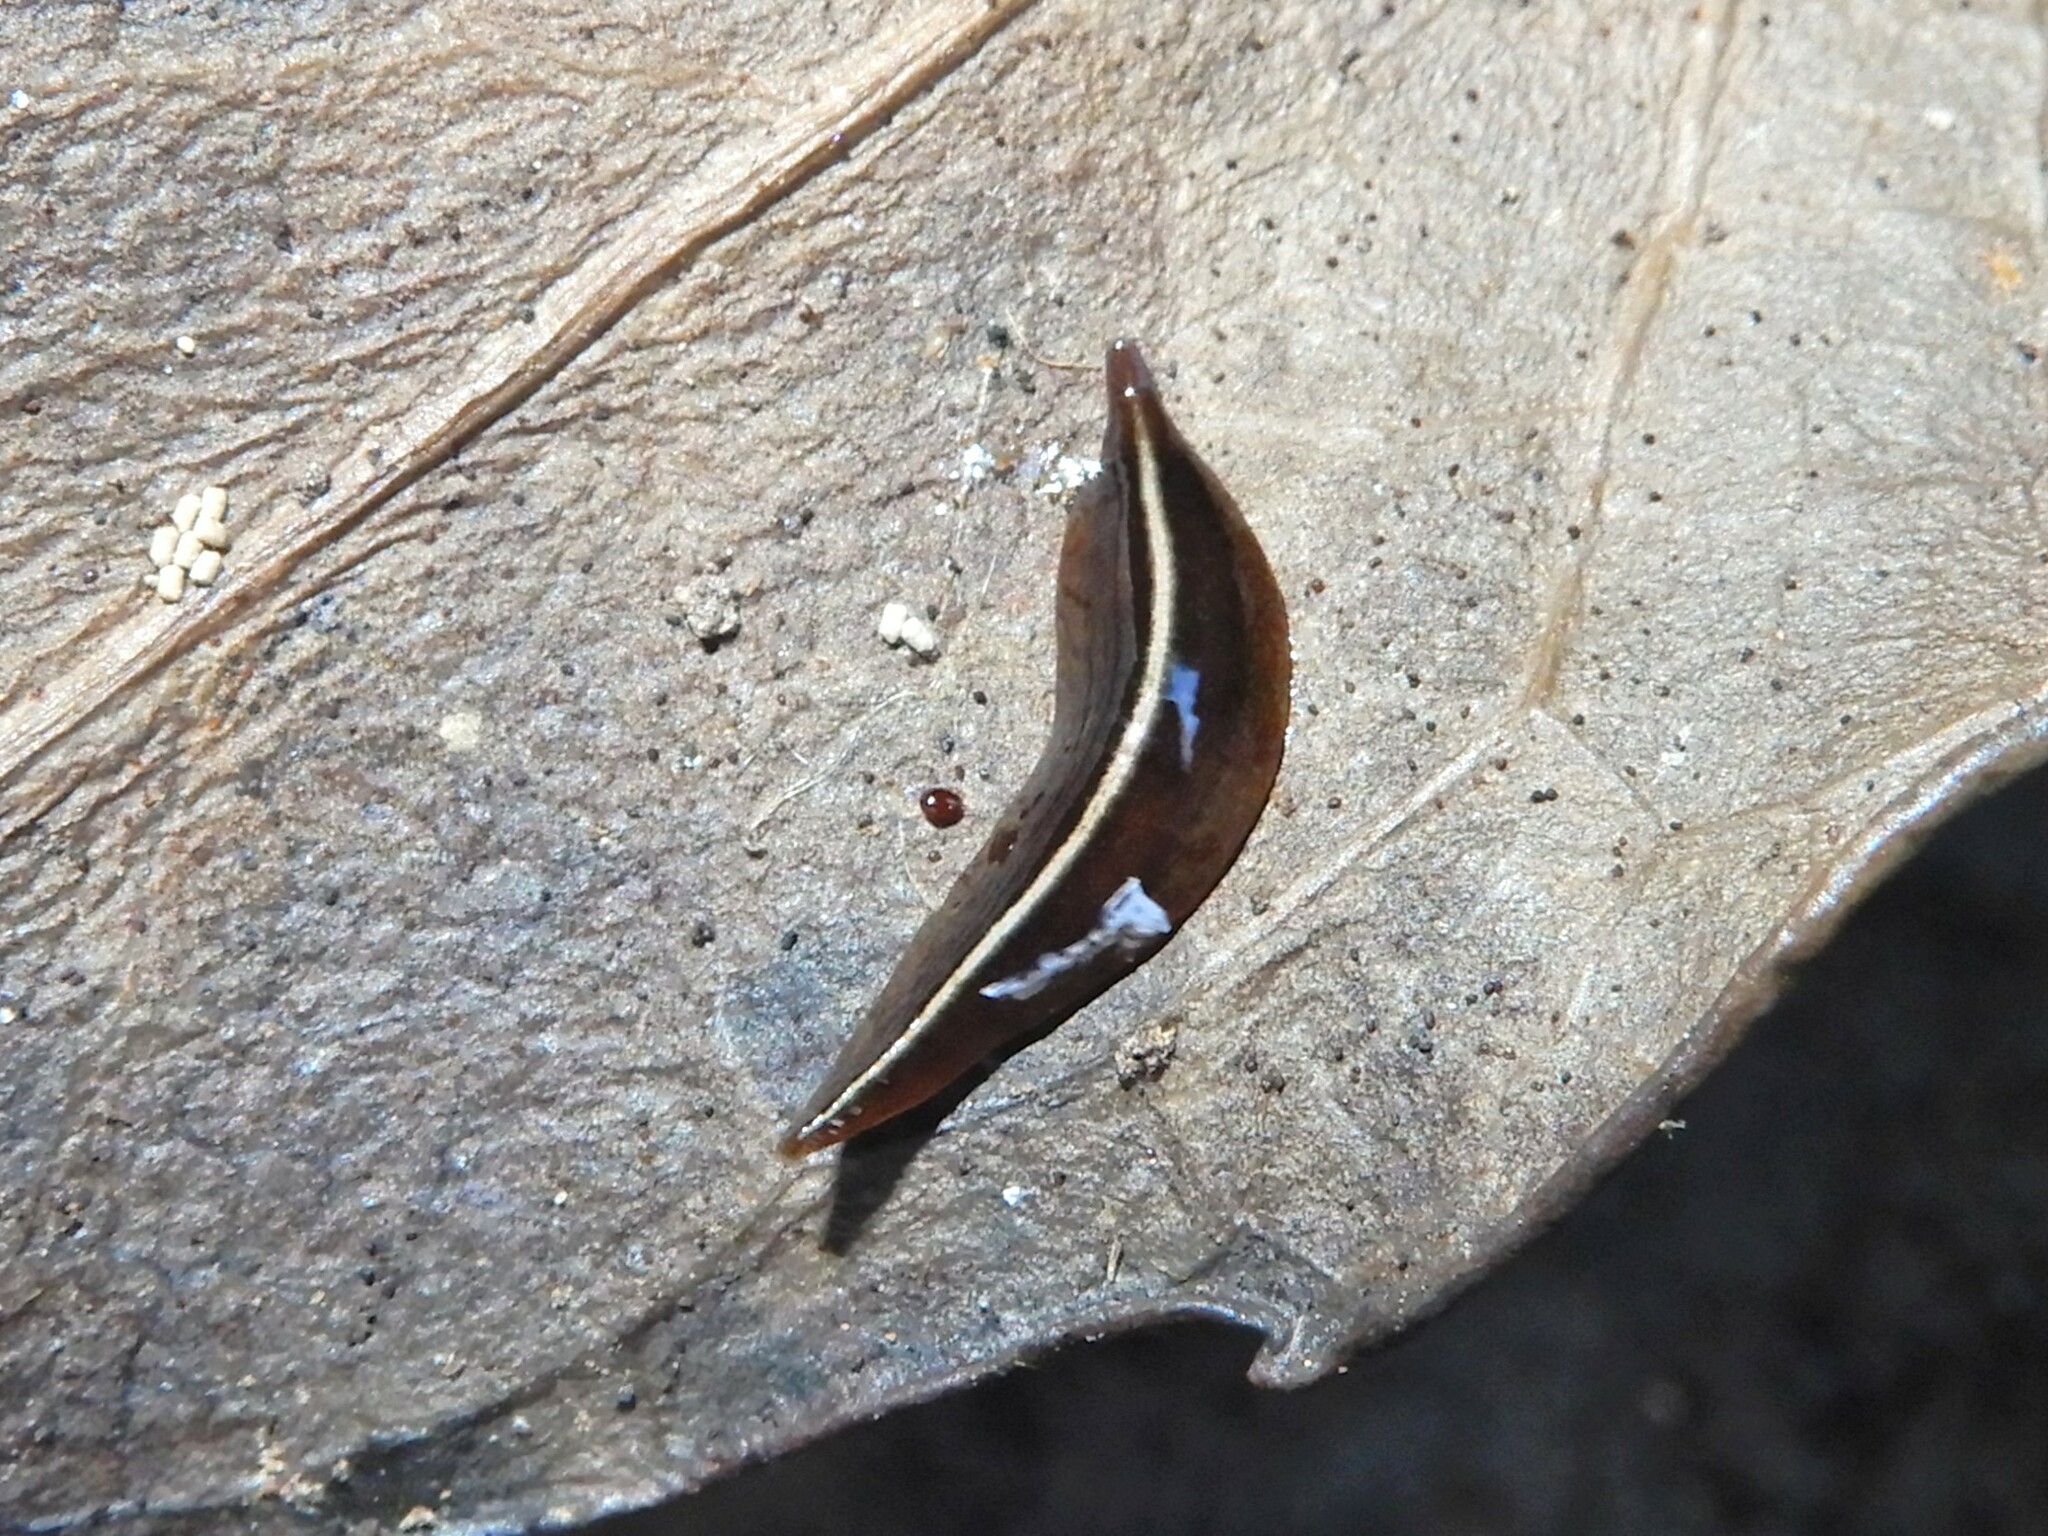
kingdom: Animalia
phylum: Platyhelminthes
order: Tricladida
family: Geoplanidae
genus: Newzealandia
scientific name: Newzealandia graffii
